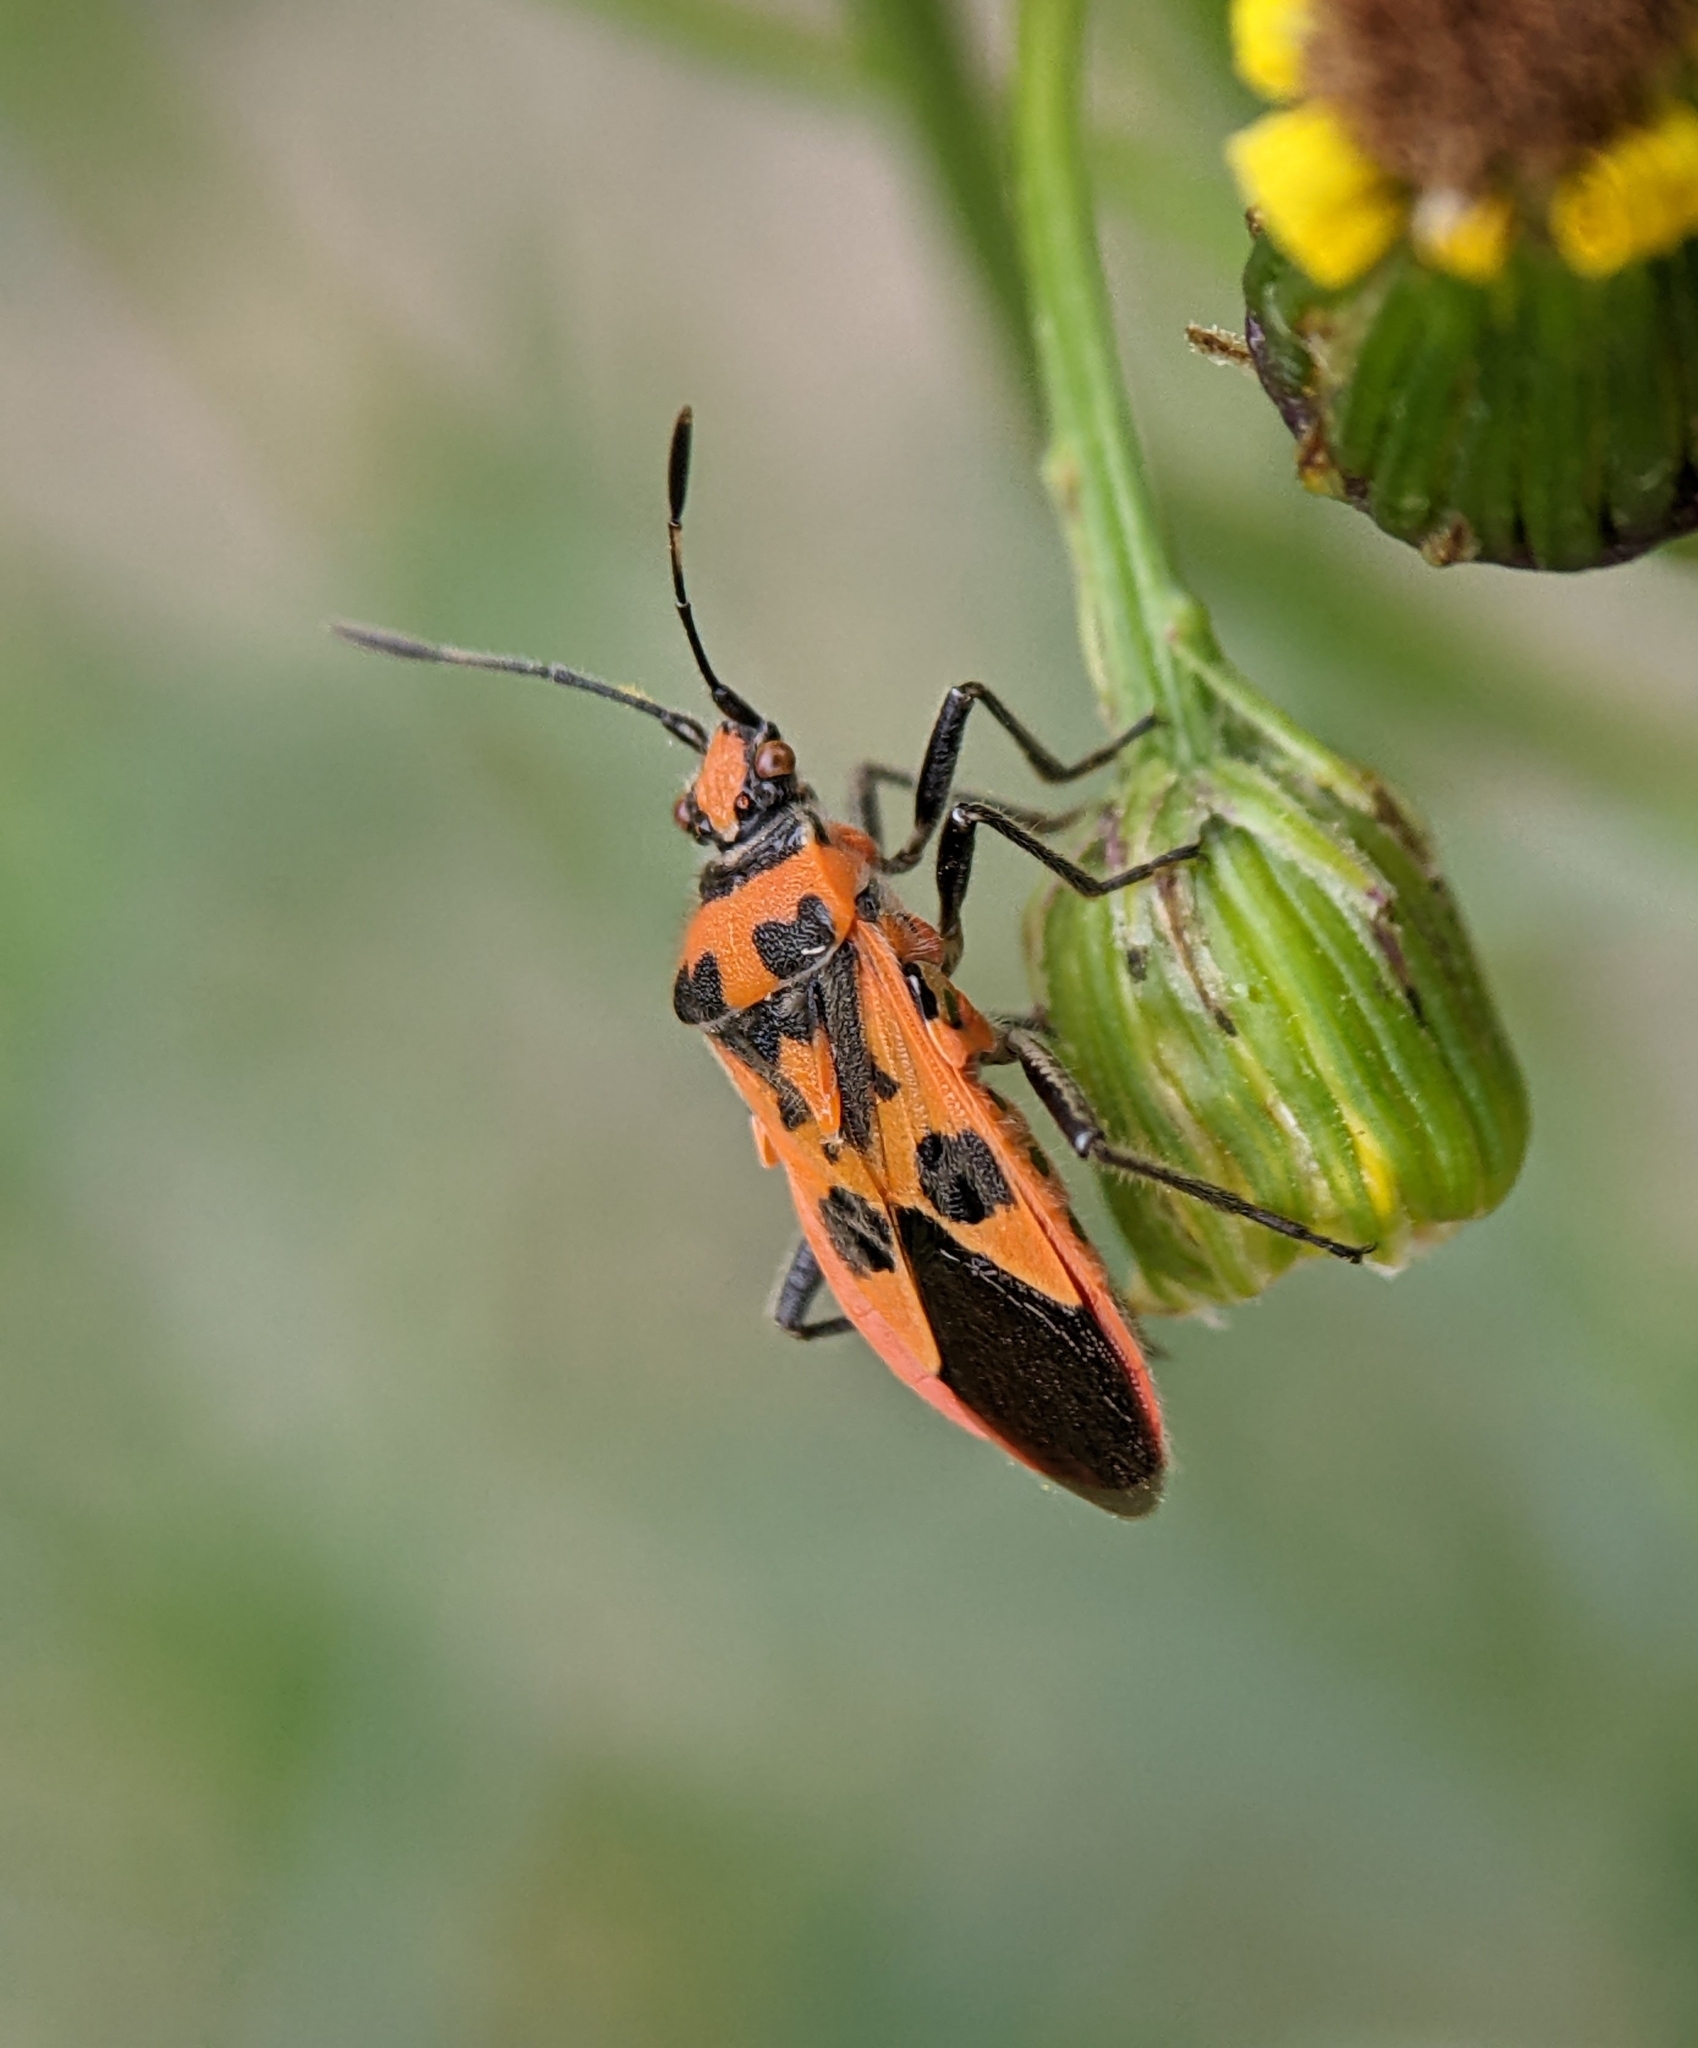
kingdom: Animalia
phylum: Arthropoda
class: Insecta
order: Hemiptera
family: Rhopalidae
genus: Corizus
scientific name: Corizus hyoscyami
